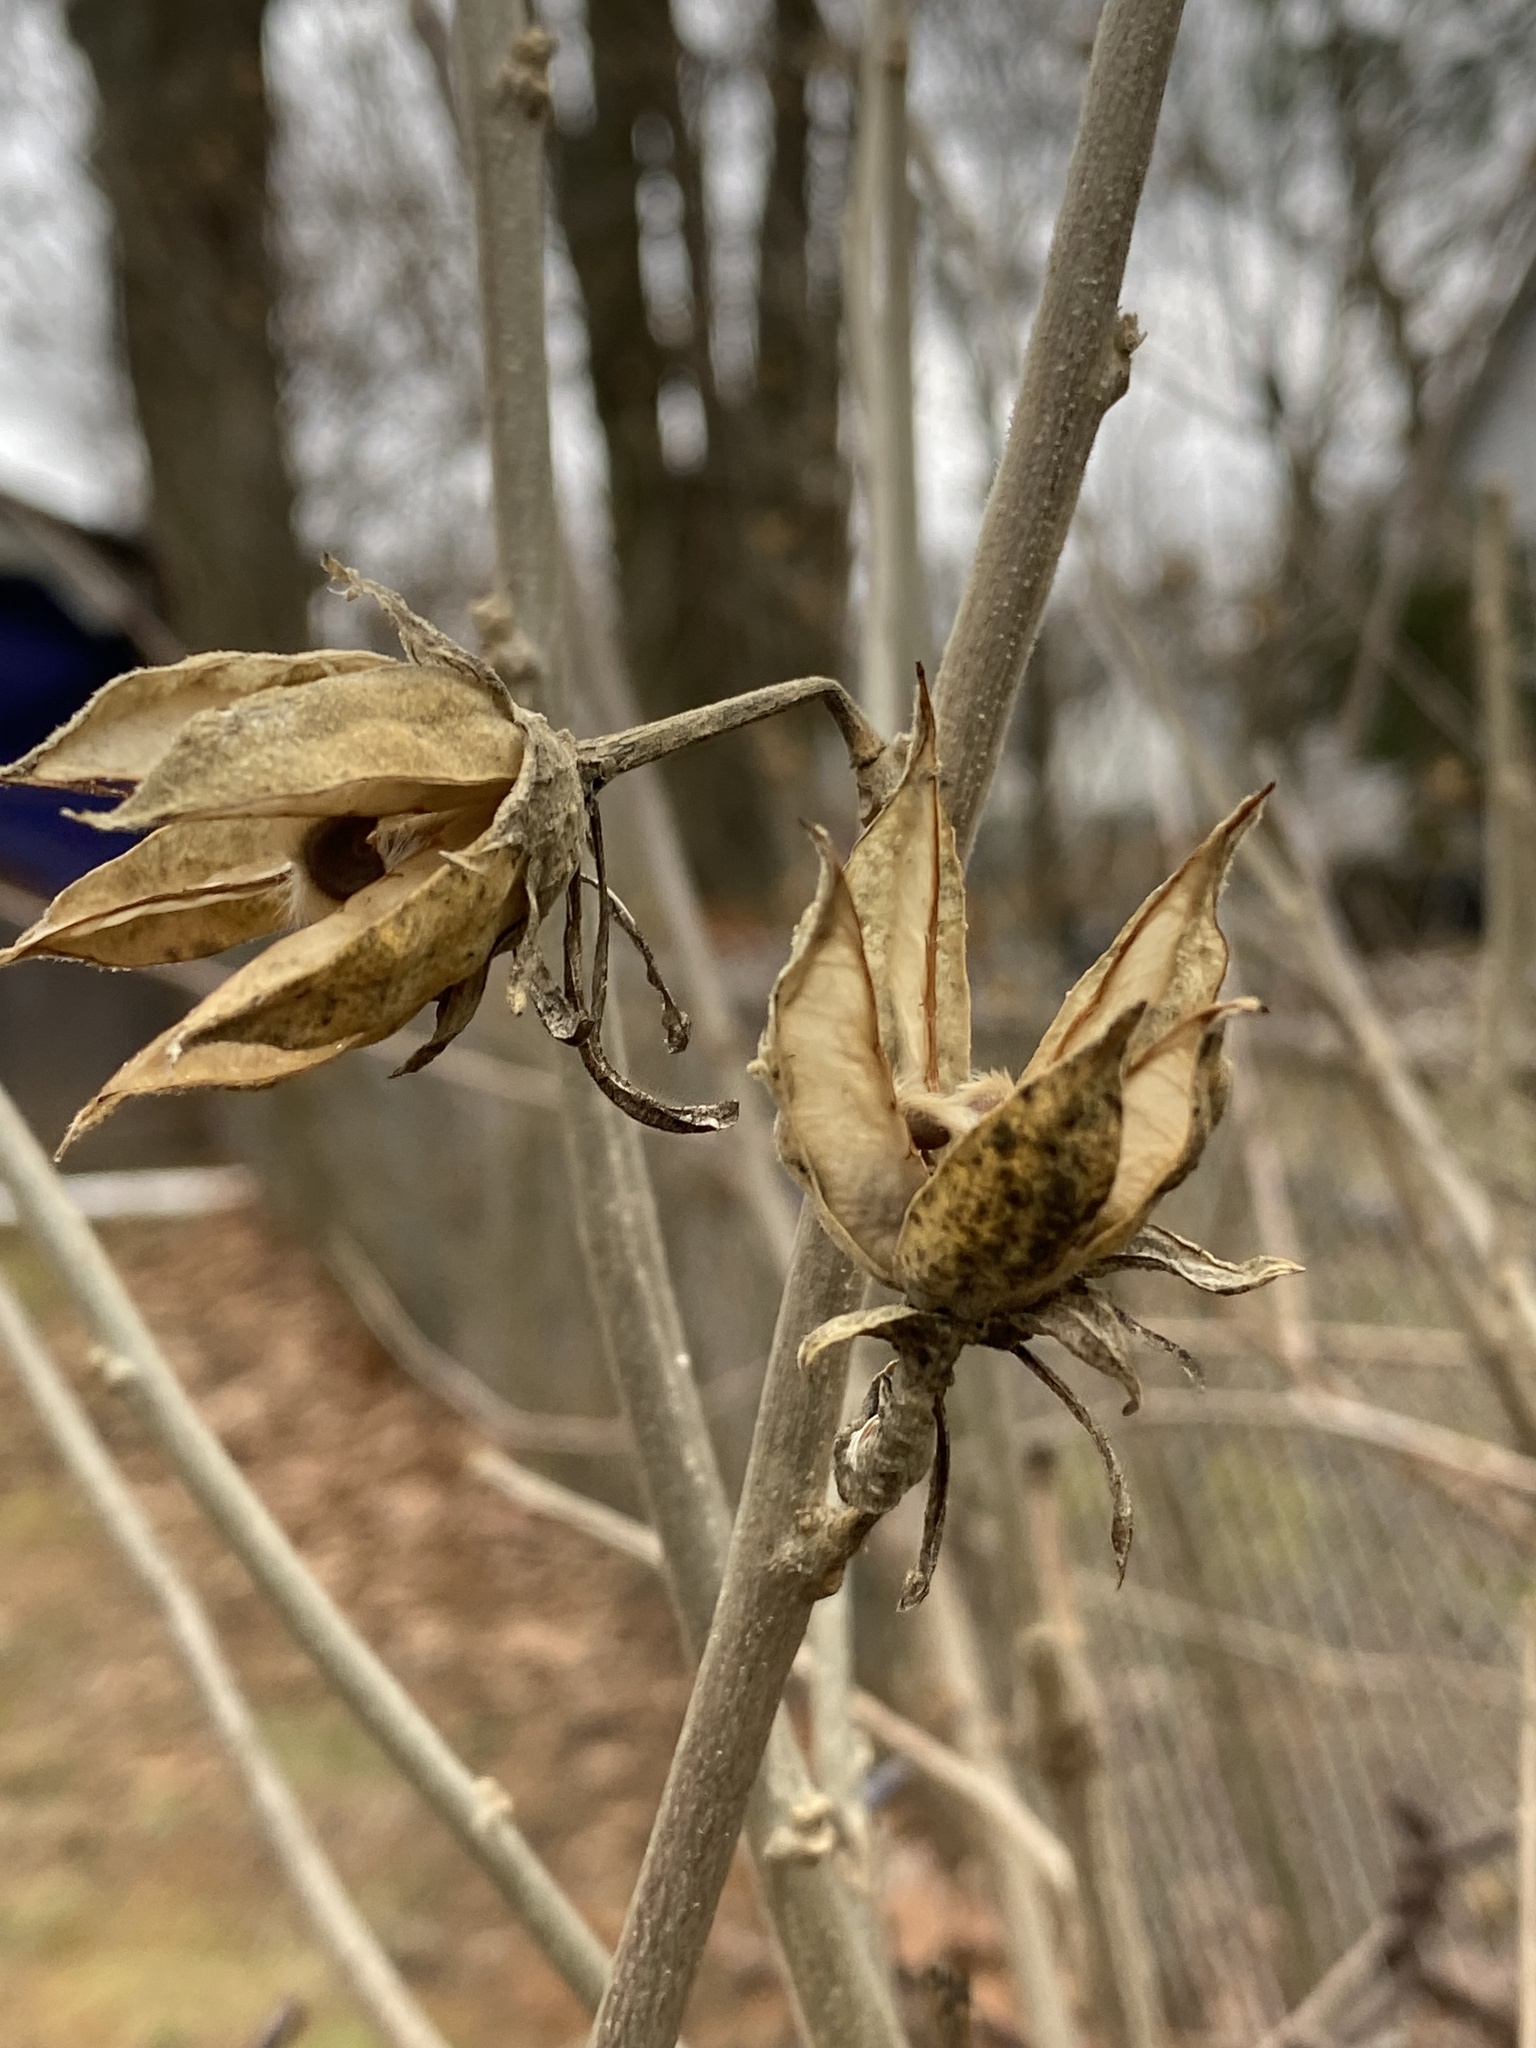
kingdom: Plantae
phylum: Tracheophyta
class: Magnoliopsida
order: Malvales
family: Malvaceae
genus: Hibiscus
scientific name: Hibiscus syriacus
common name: Syrian ketmia
